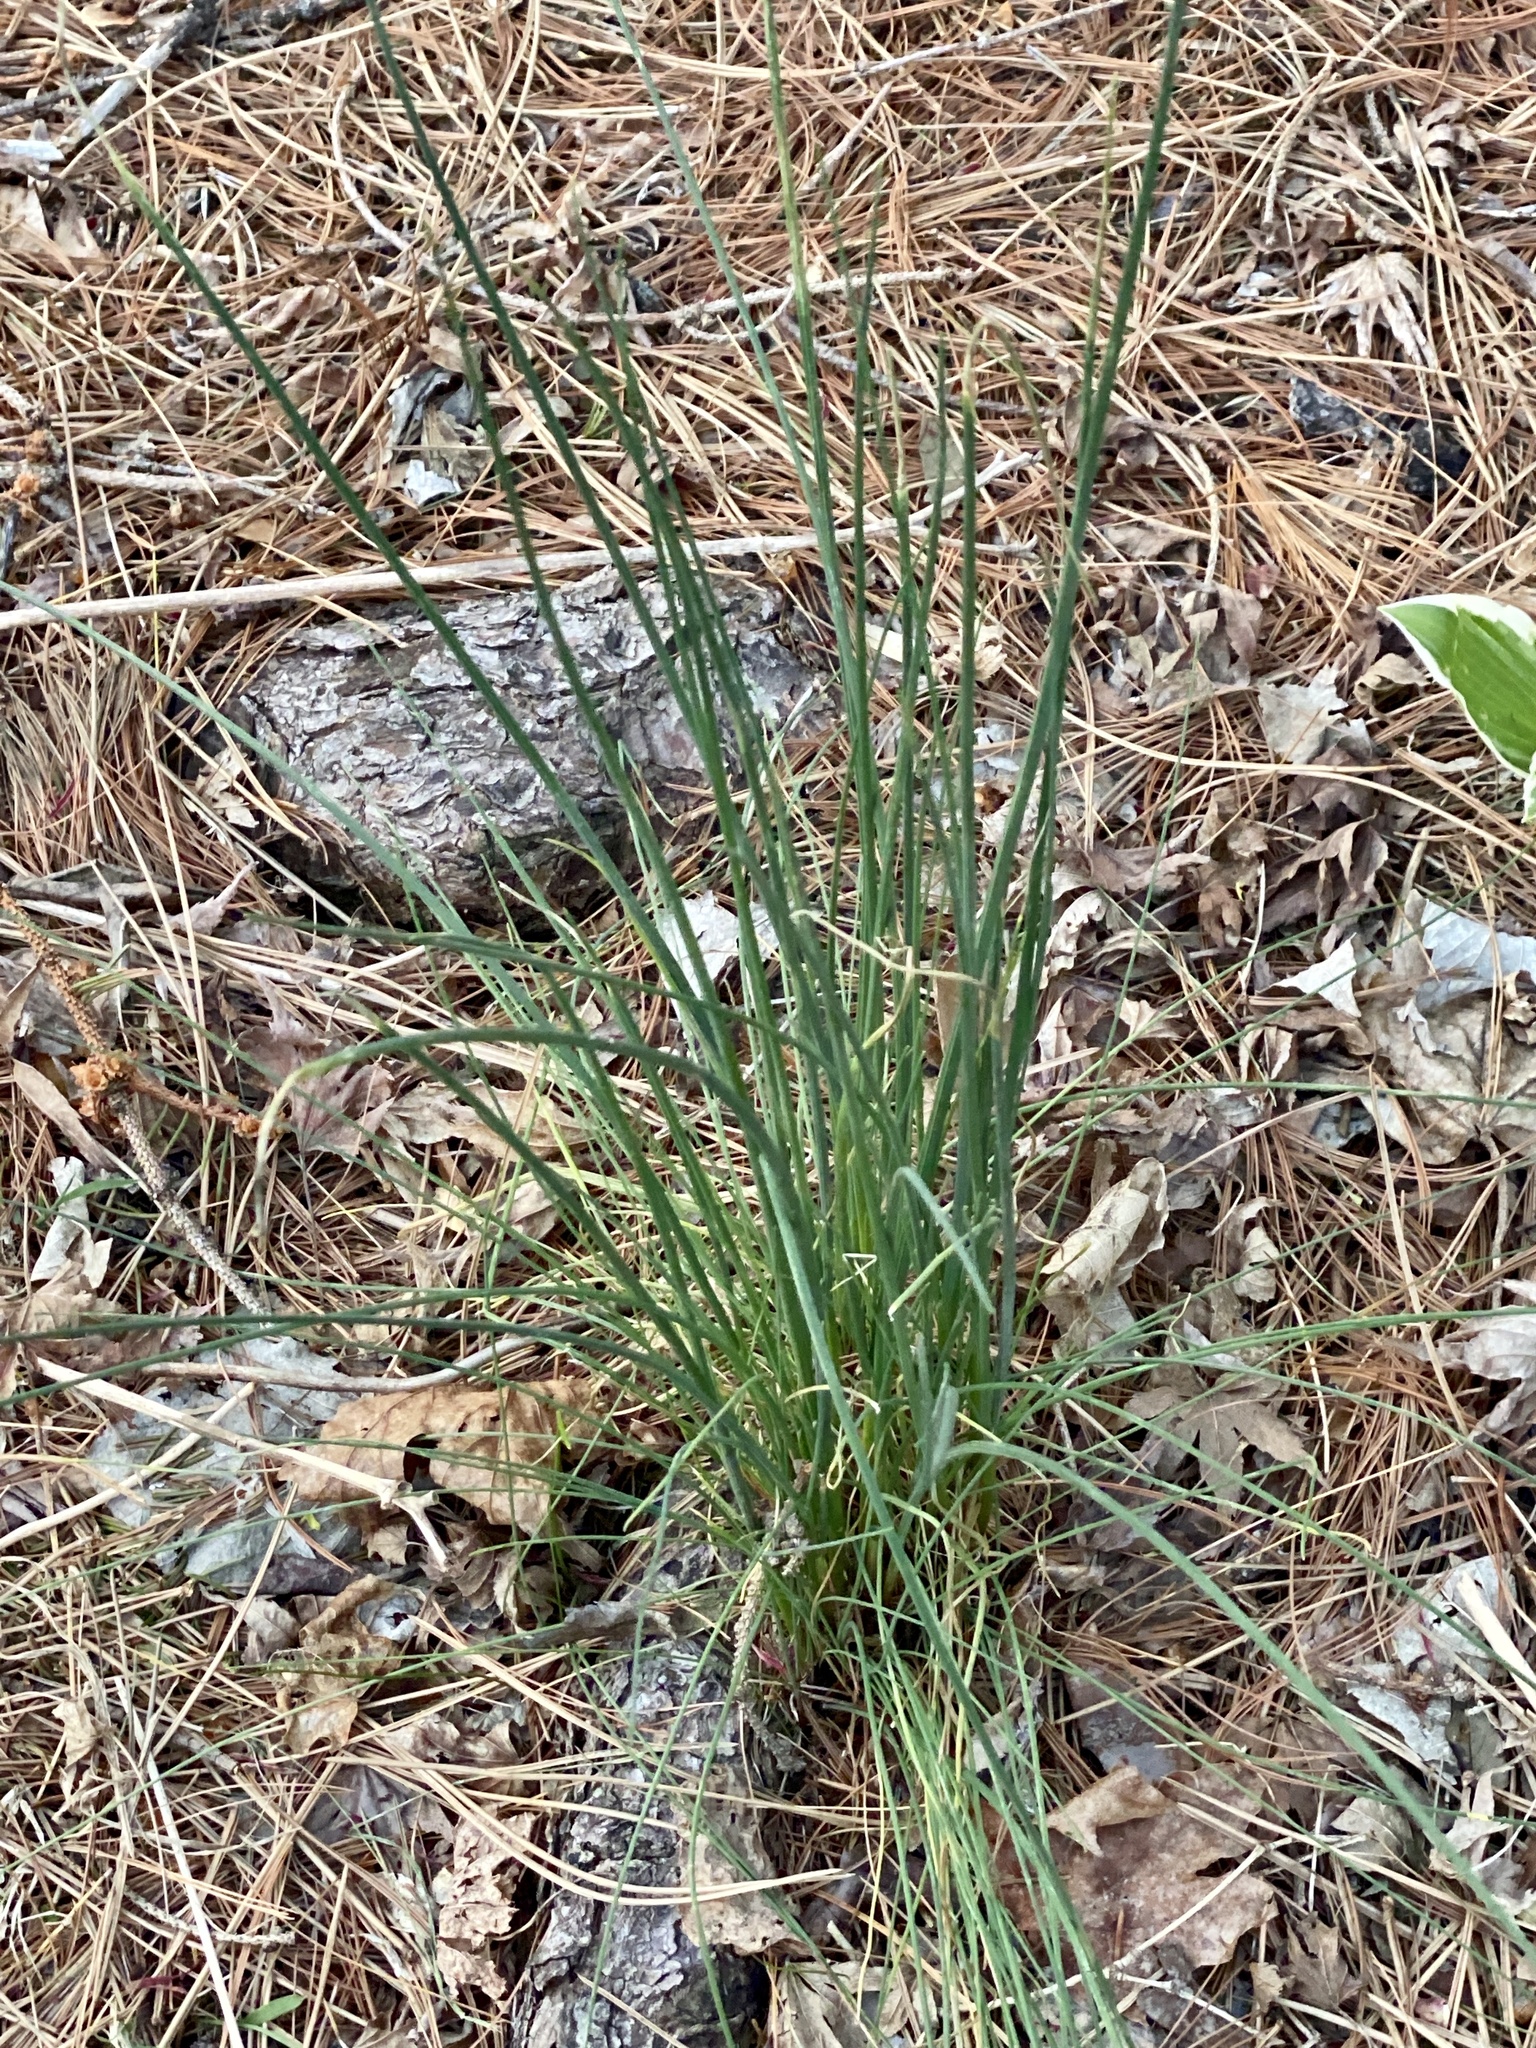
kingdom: Plantae
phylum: Tracheophyta
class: Liliopsida
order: Asparagales
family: Amaryllidaceae
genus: Allium
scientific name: Allium vineale
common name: Crow garlic
